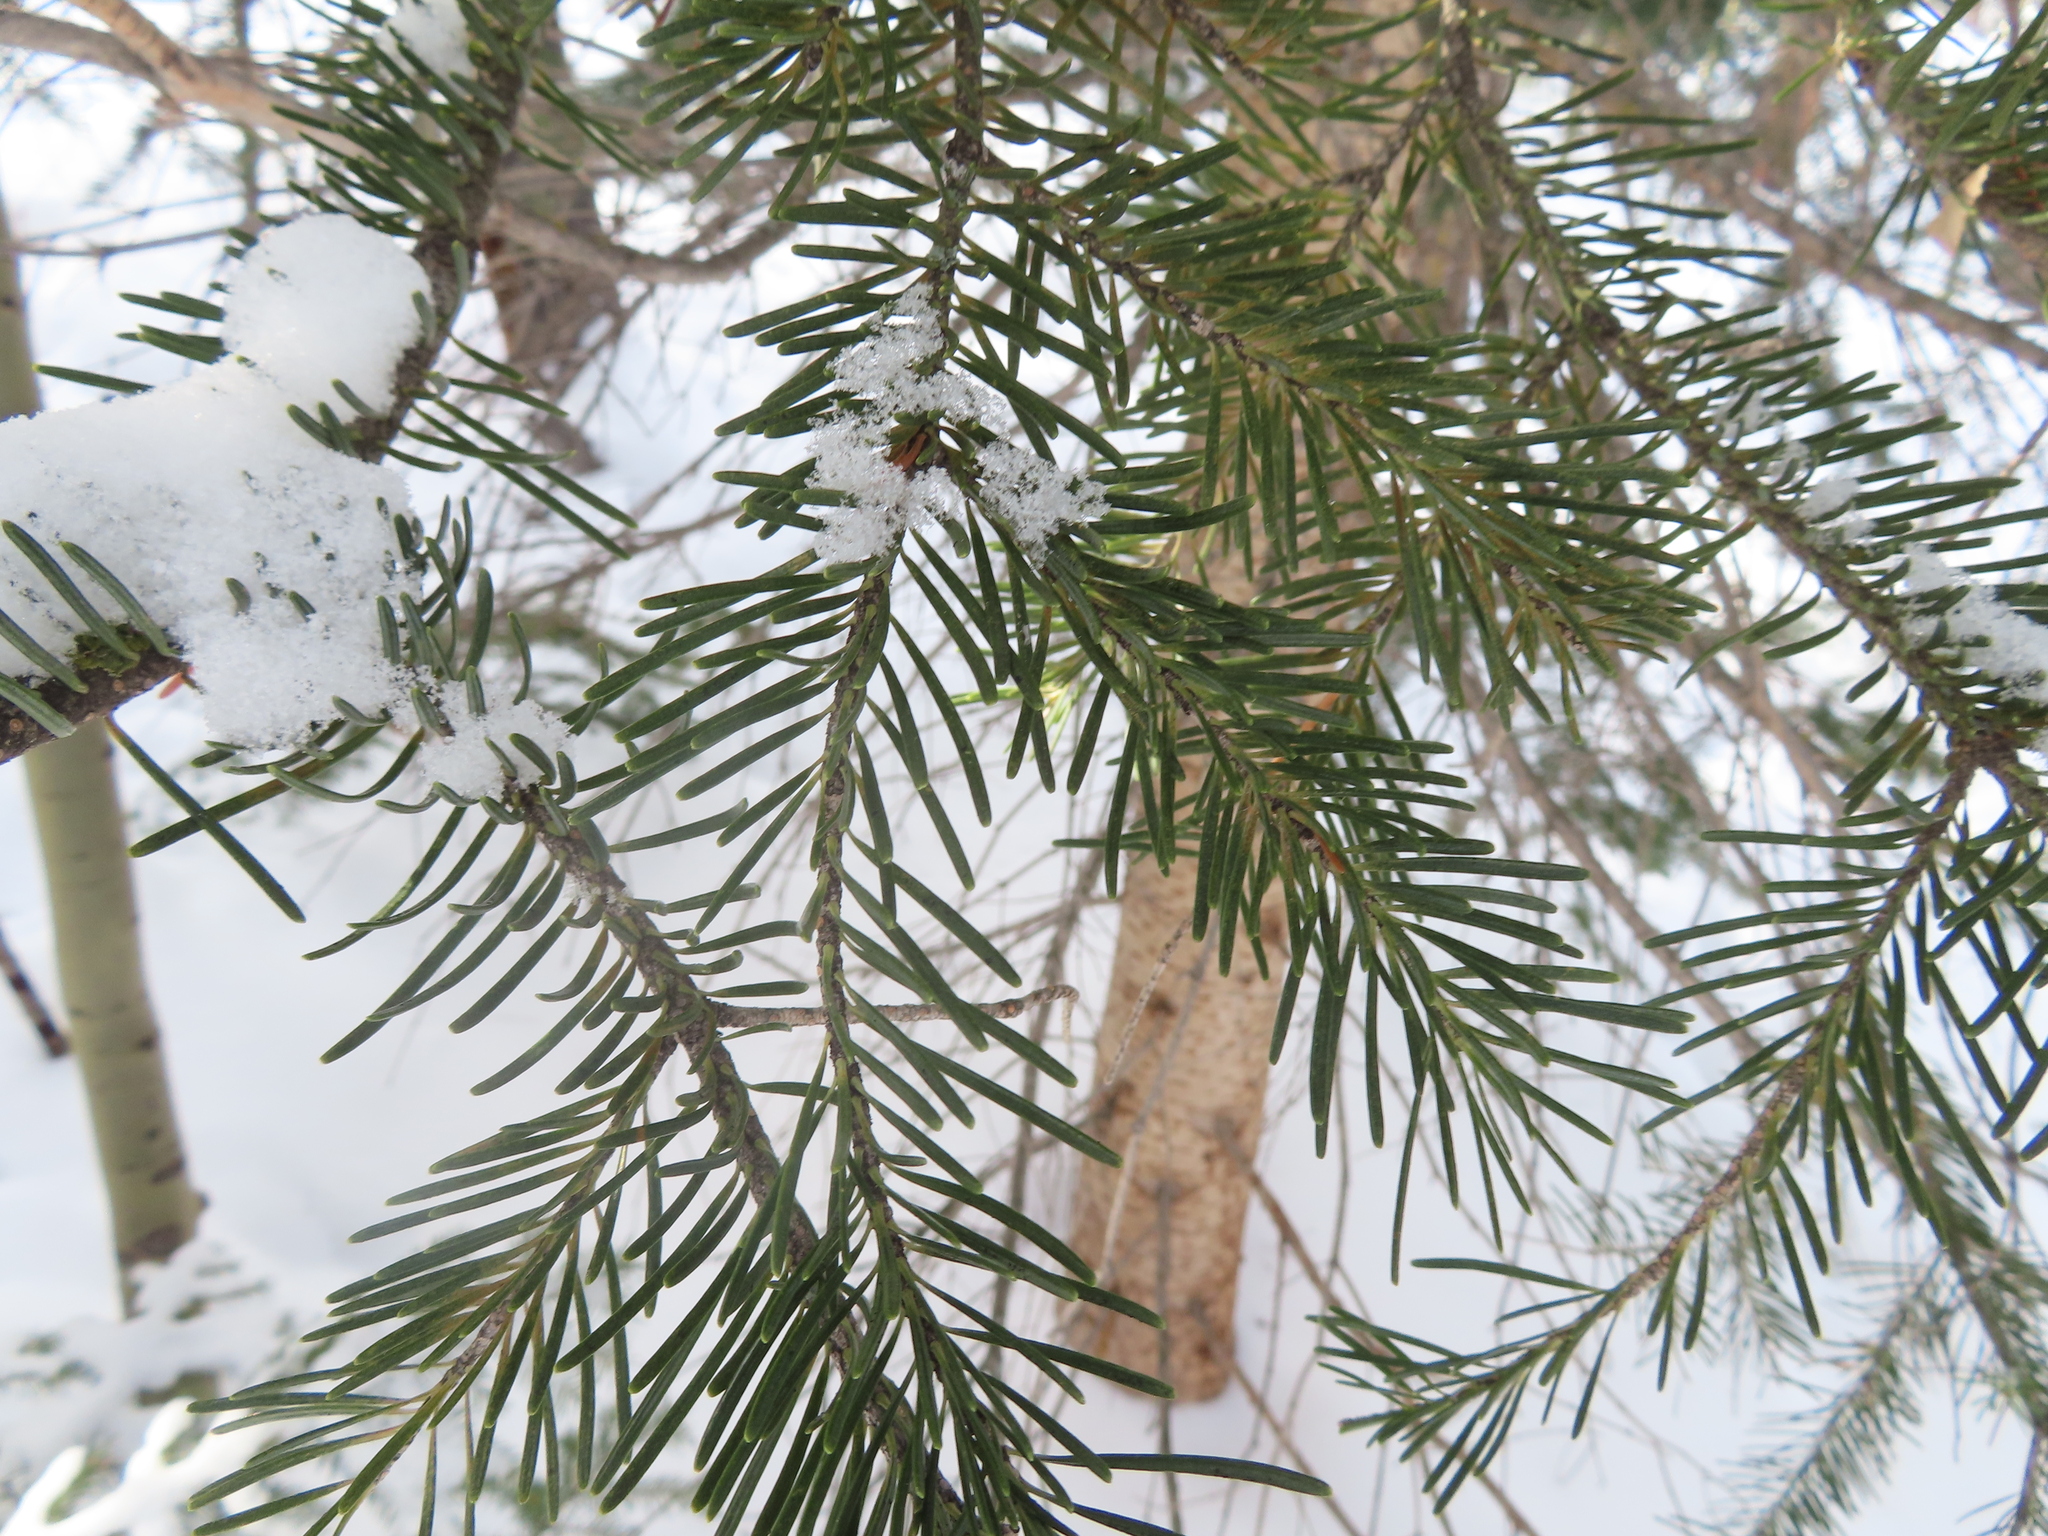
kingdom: Plantae
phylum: Tracheophyta
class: Pinopsida
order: Pinales
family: Pinaceae
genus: Abies
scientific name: Abies lasiocarpa
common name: Subalpine fir
